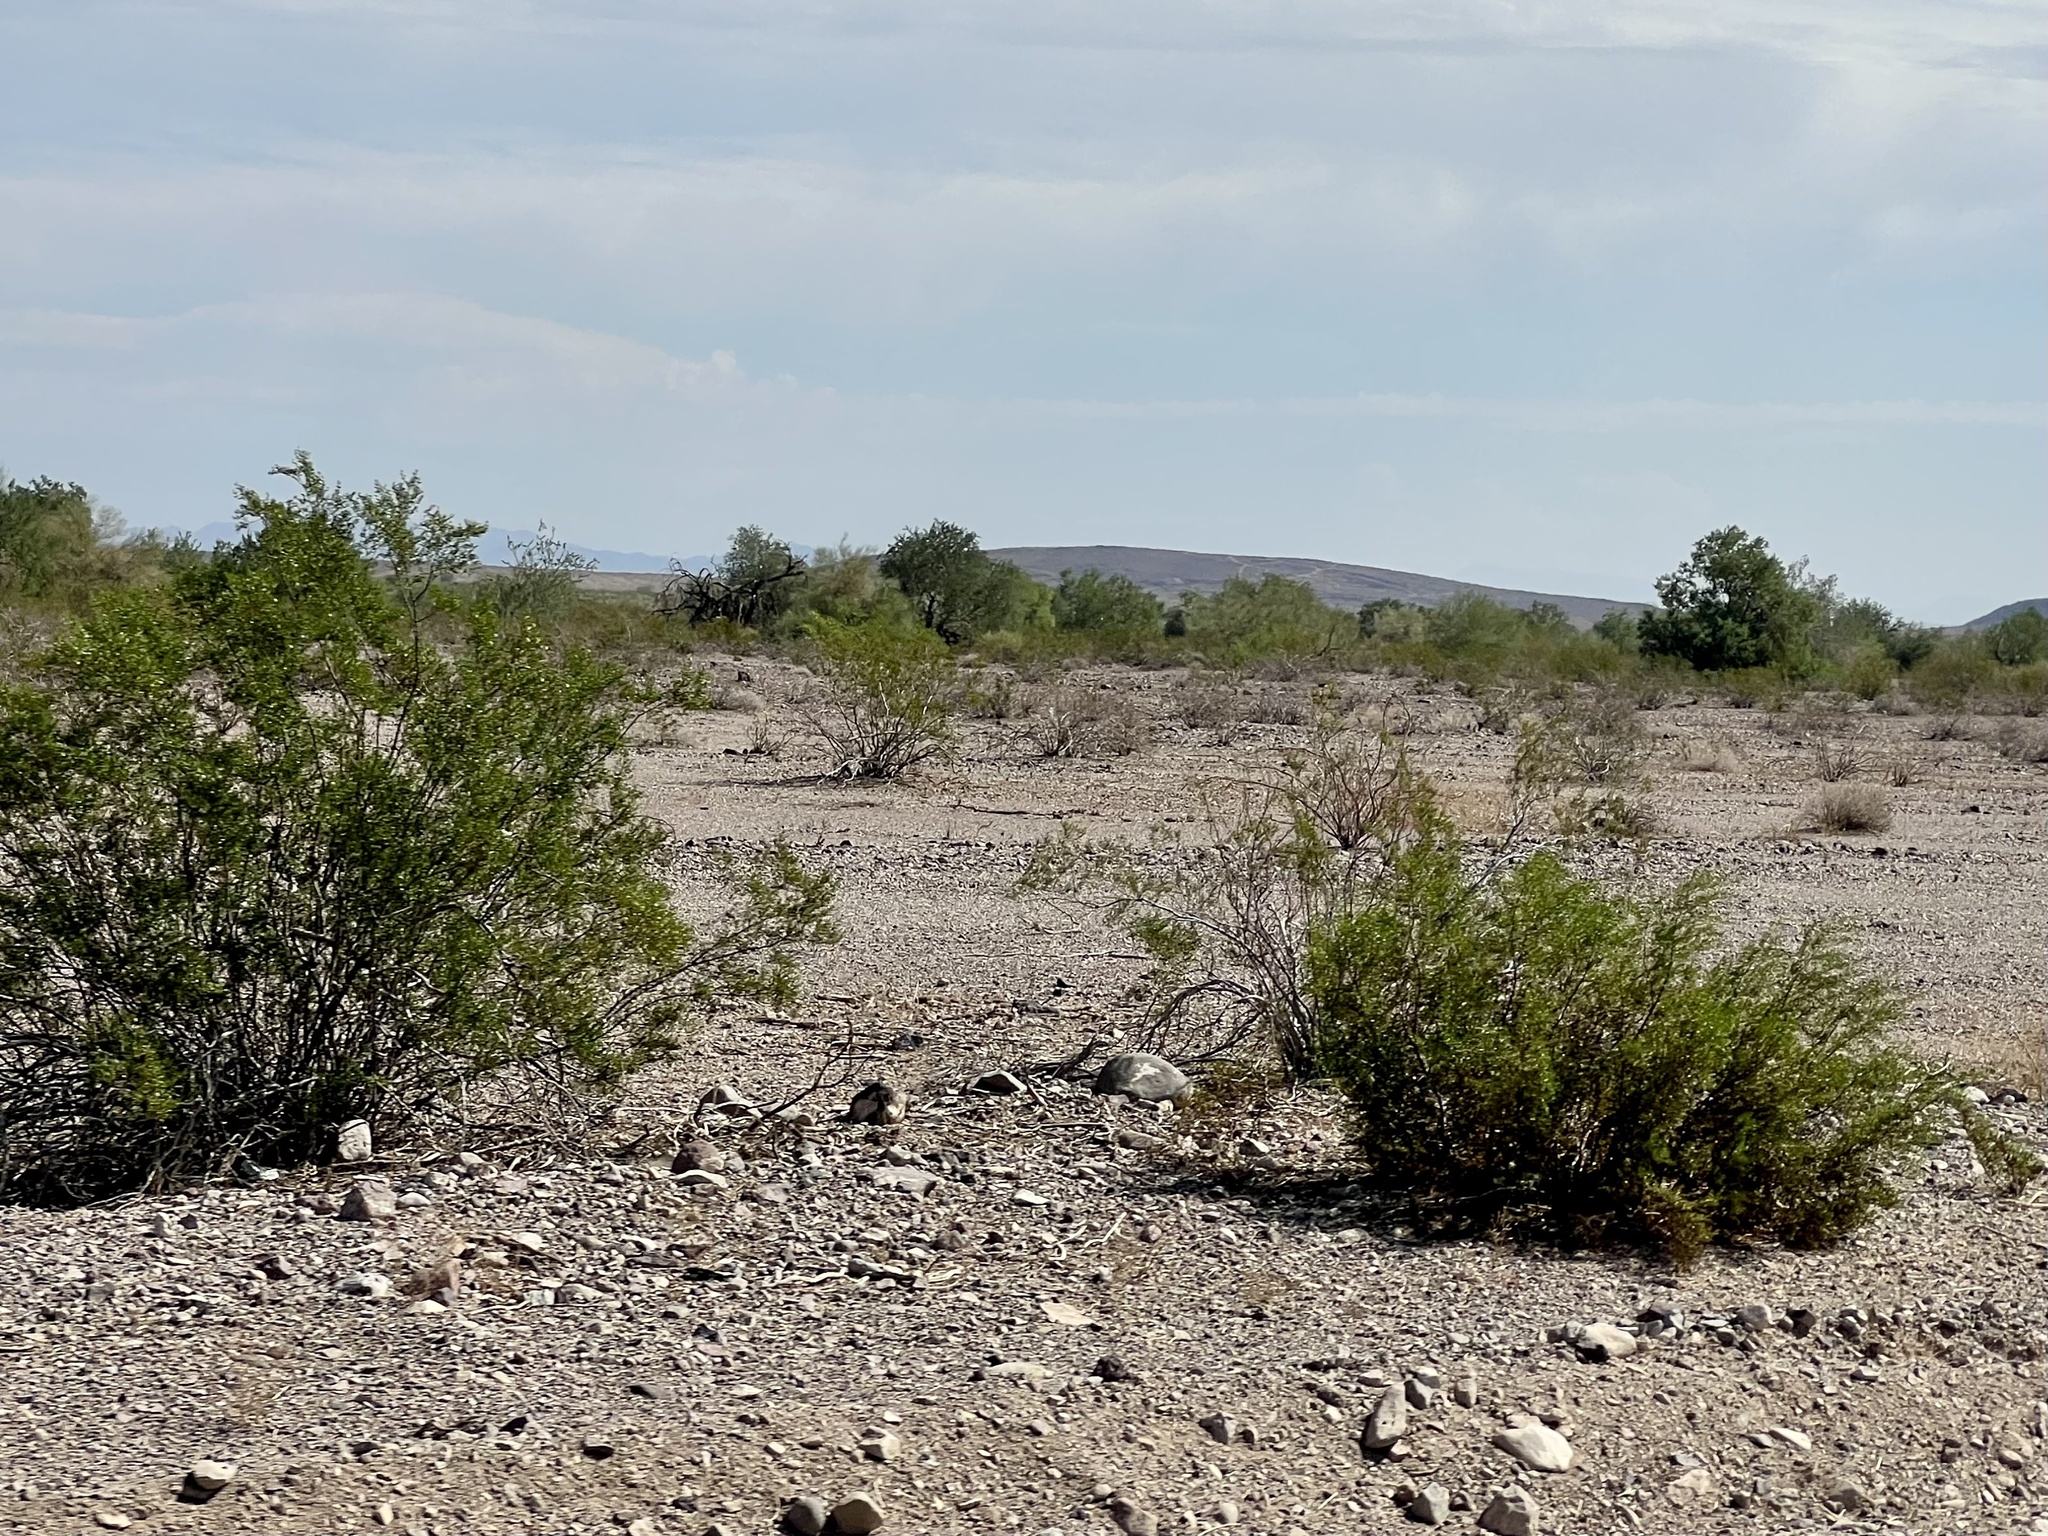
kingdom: Plantae
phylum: Tracheophyta
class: Magnoliopsida
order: Zygophyllales
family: Zygophyllaceae
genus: Larrea
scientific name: Larrea tridentata
